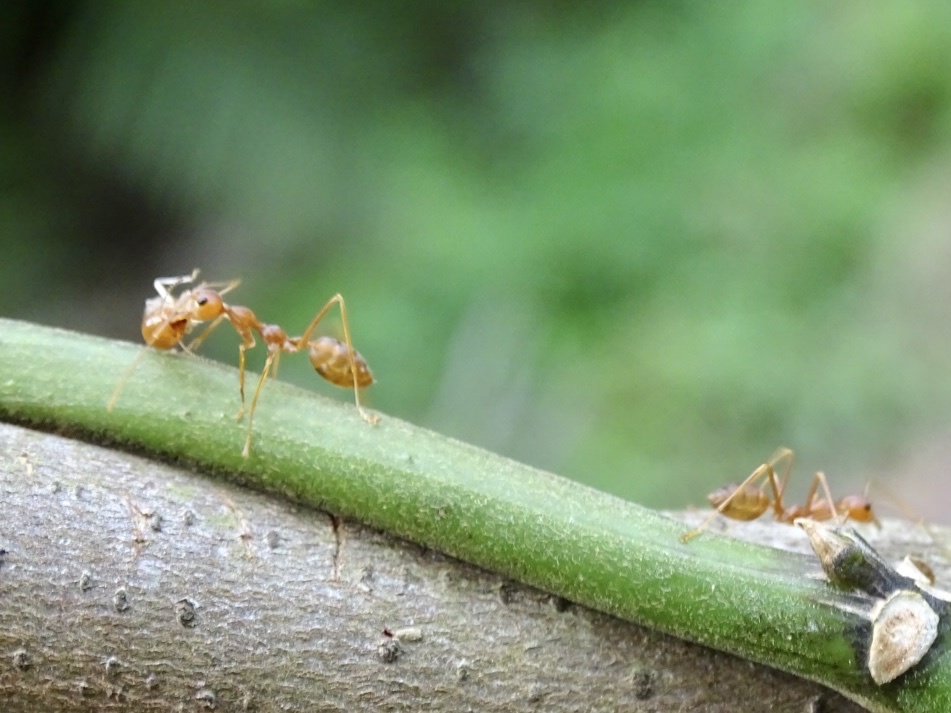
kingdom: Animalia
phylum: Arthropoda
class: Insecta
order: Hymenoptera
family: Formicidae
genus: Oecophylla
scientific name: Oecophylla smaragdina
